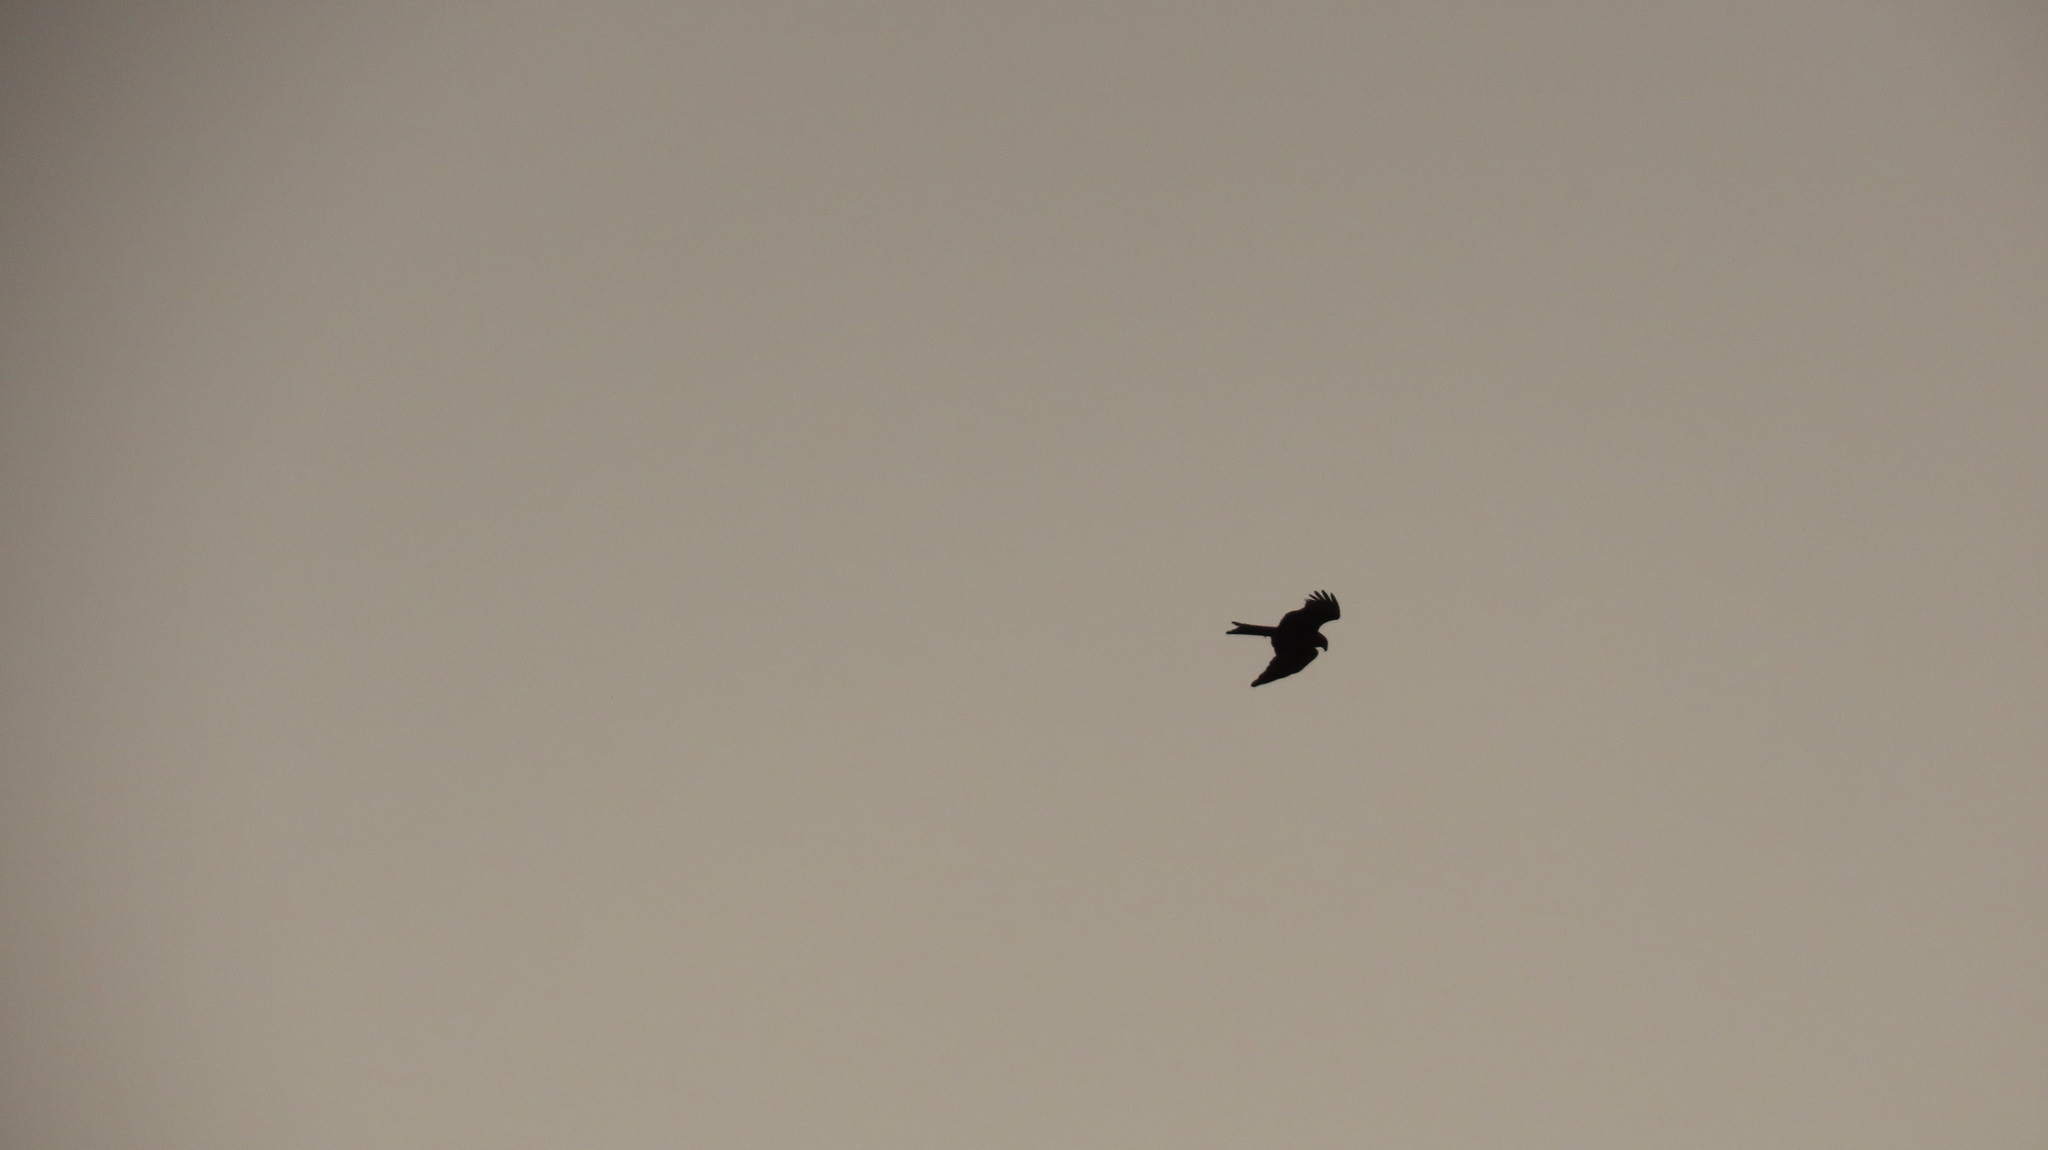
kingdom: Animalia
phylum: Chordata
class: Aves
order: Accipitriformes
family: Accipitridae
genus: Milvus
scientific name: Milvus migrans
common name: Black kite
